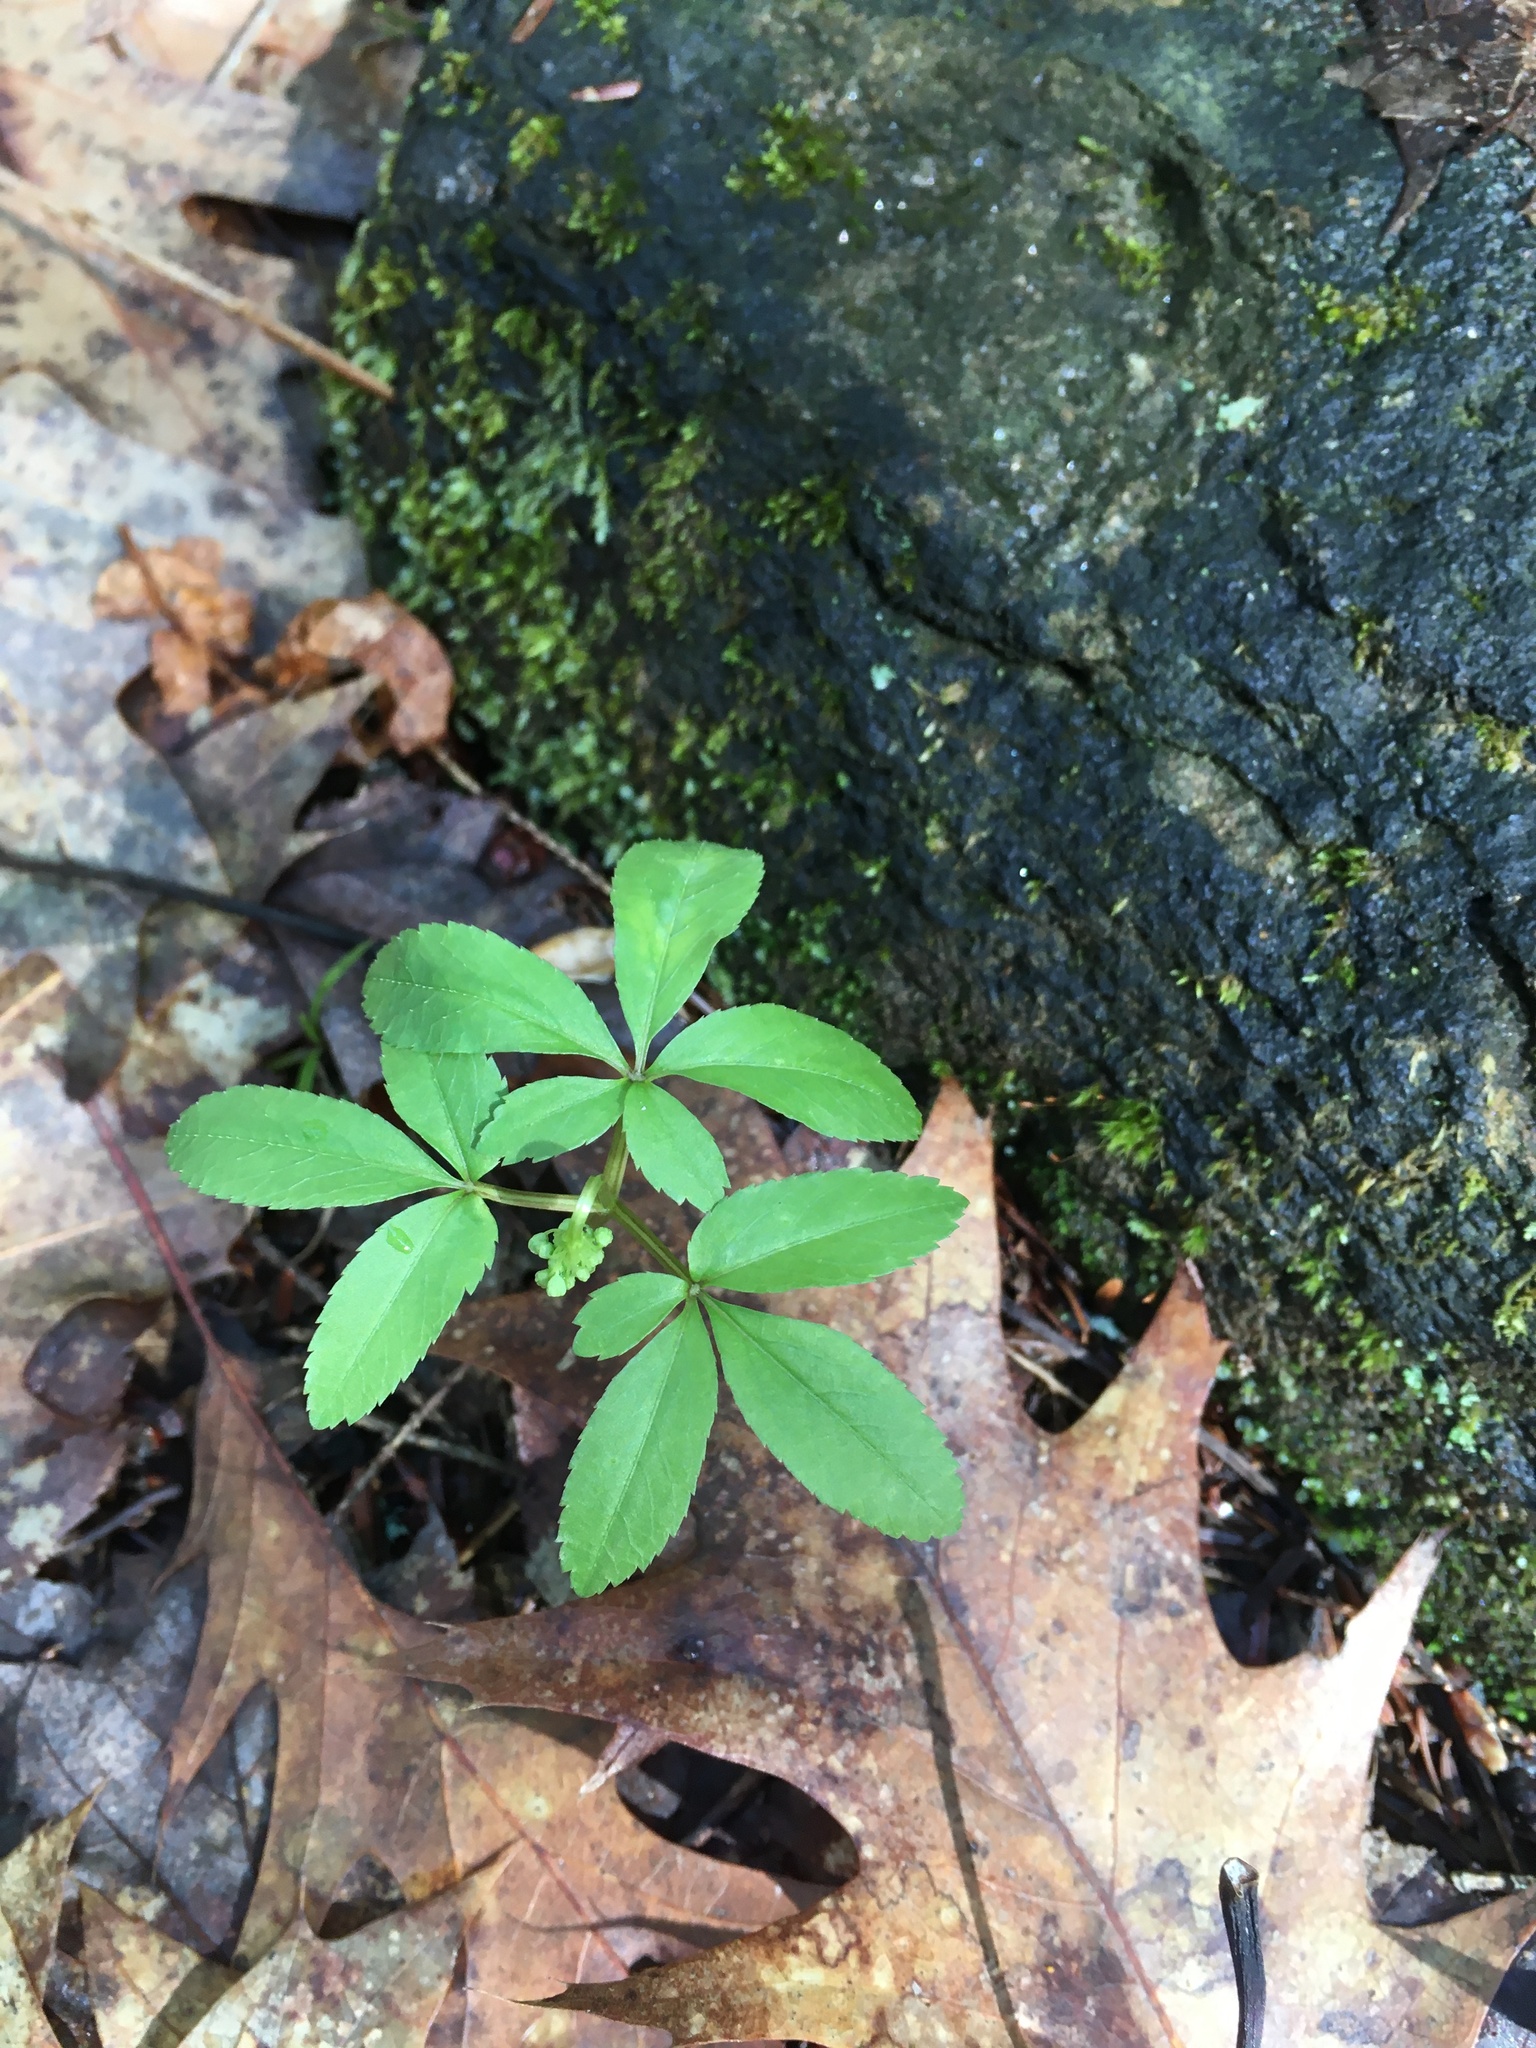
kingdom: Plantae
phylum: Tracheophyta
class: Magnoliopsida
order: Apiales
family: Araliaceae
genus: Panax
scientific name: Panax trifolius
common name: Dwarf ginseng
